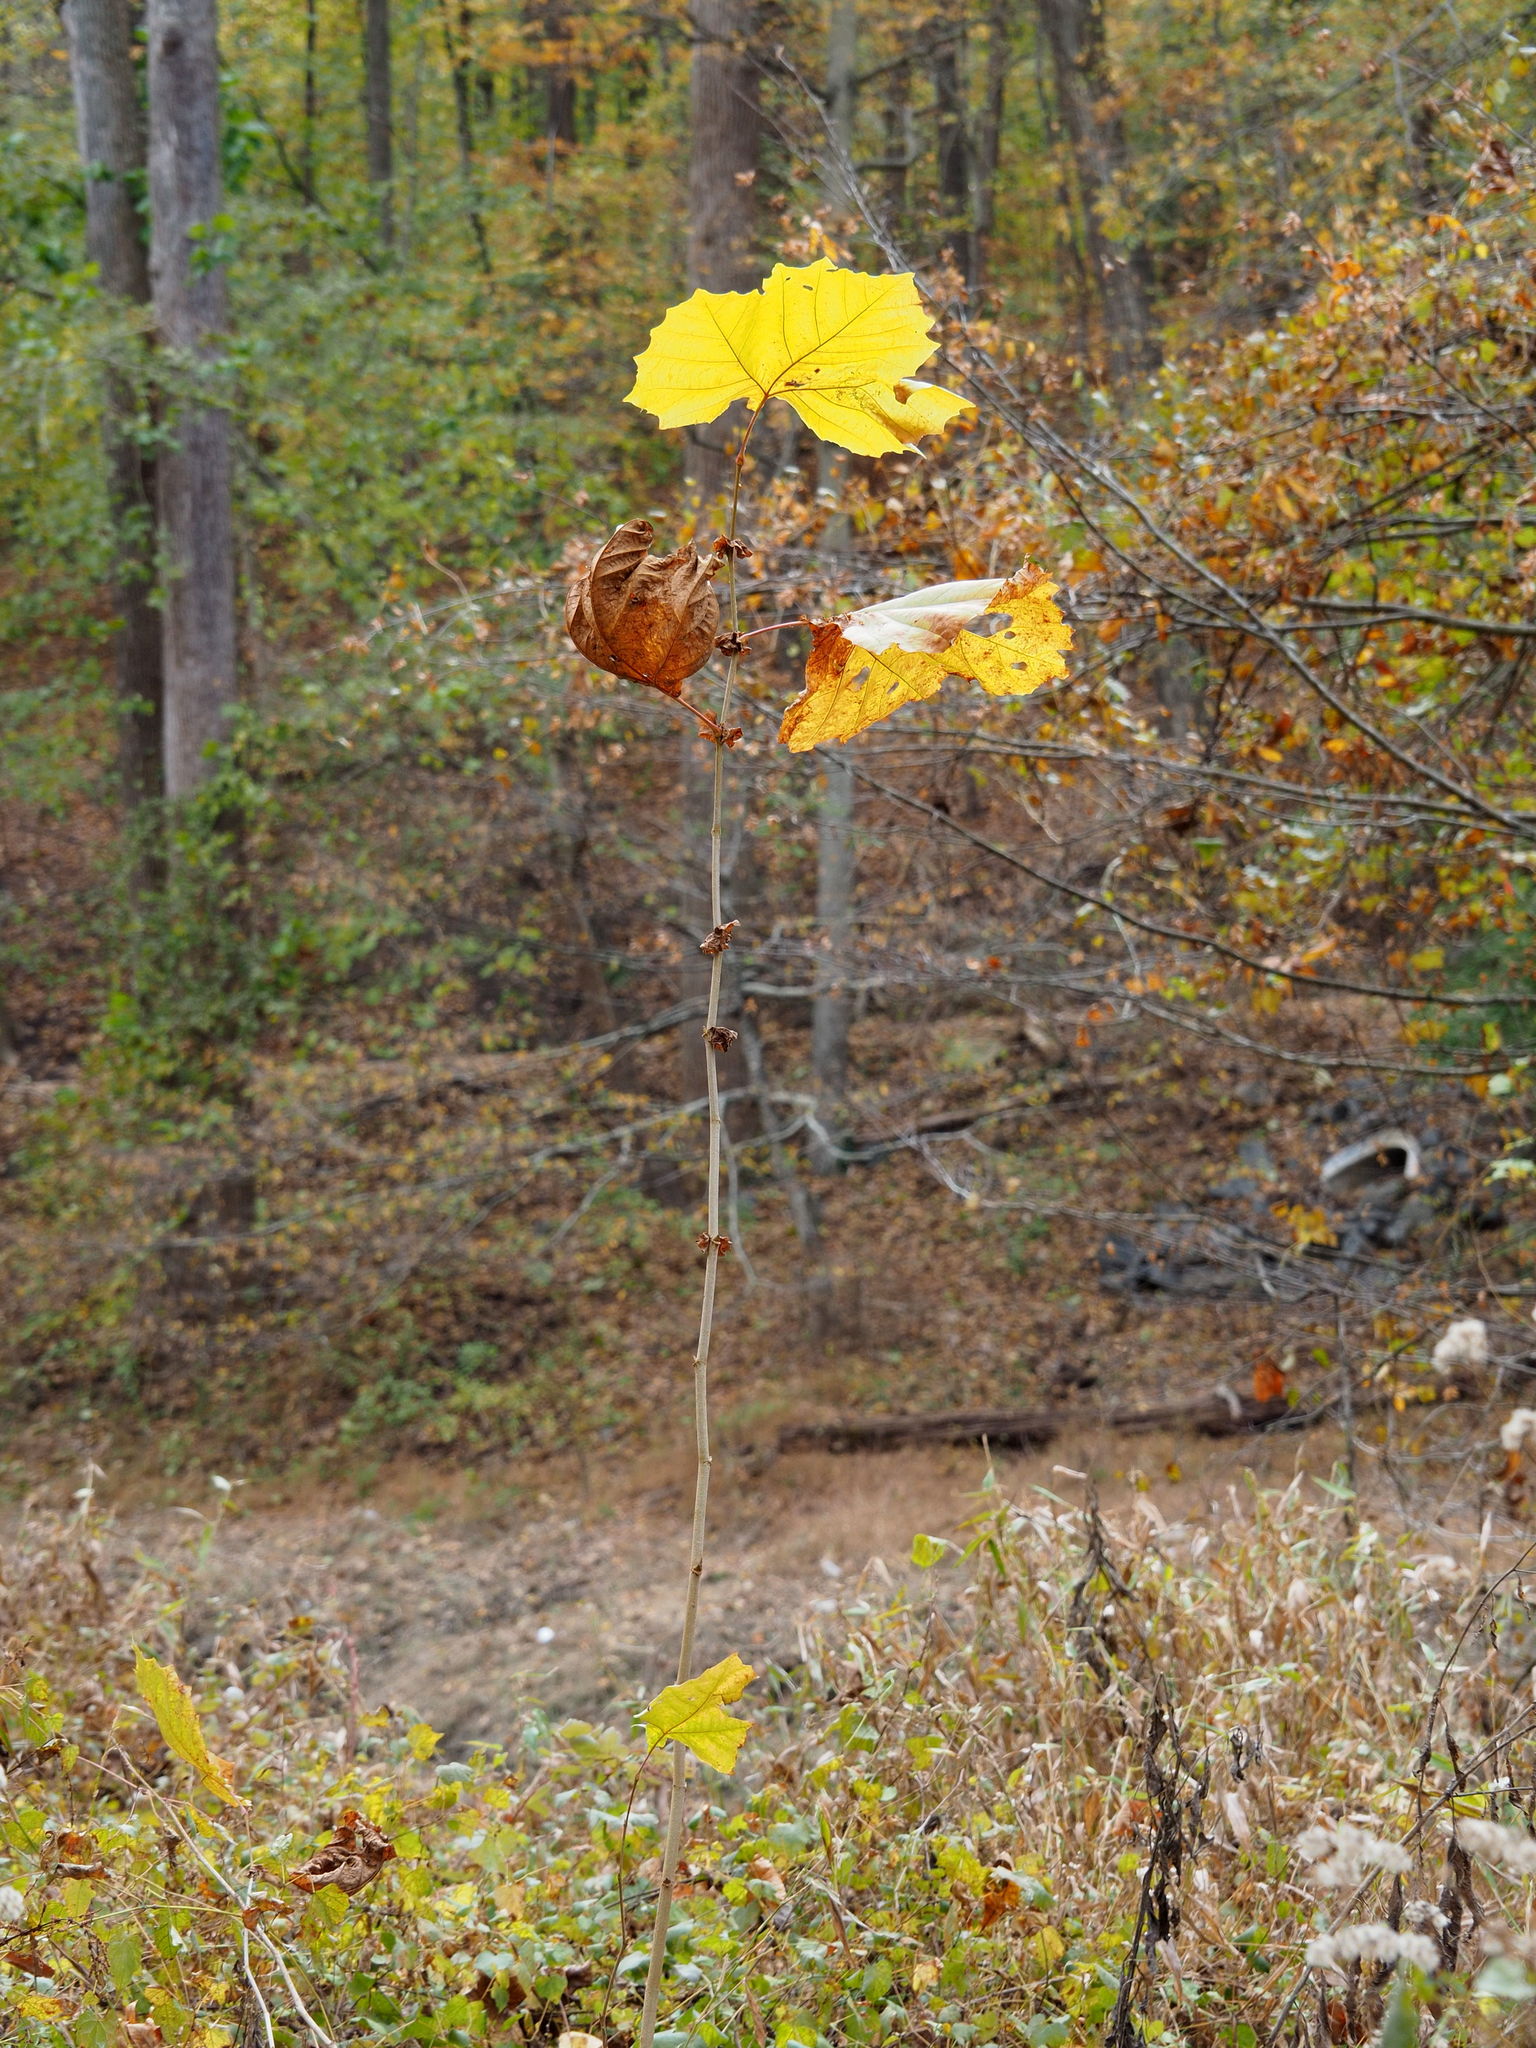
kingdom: Plantae
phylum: Tracheophyta
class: Magnoliopsida
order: Proteales
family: Platanaceae
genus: Platanus
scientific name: Platanus occidentalis
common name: American sycamore
